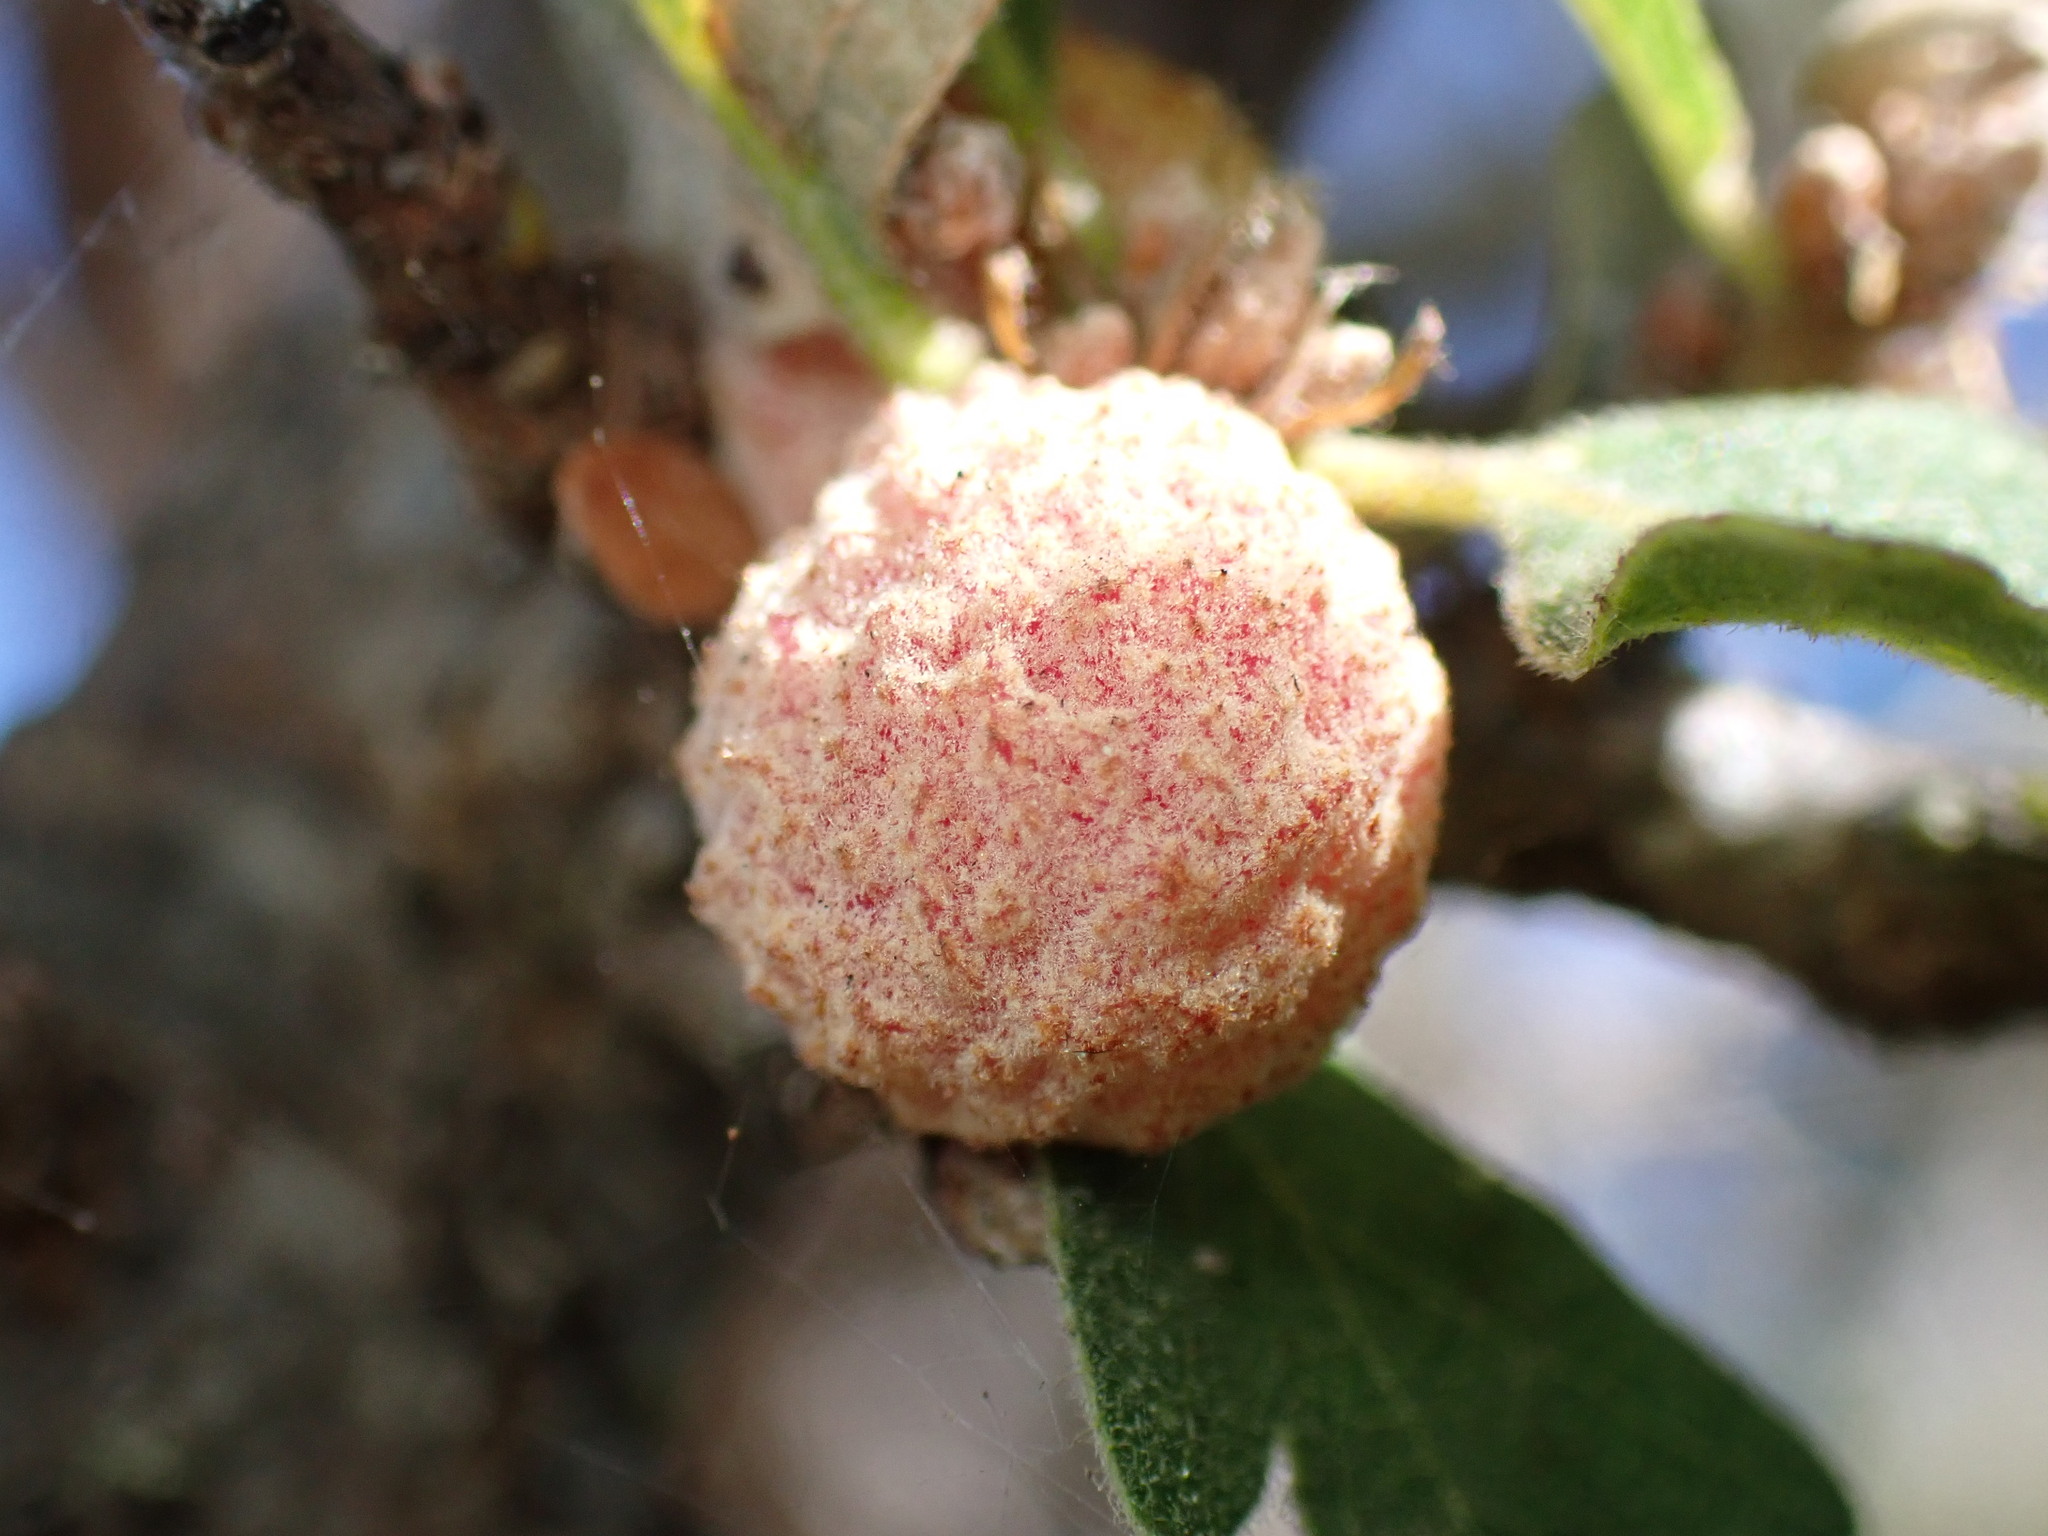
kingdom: Animalia
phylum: Arthropoda
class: Insecta
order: Hymenoptera
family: Cynipidae
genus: Cynips
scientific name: Cynips conspicua
